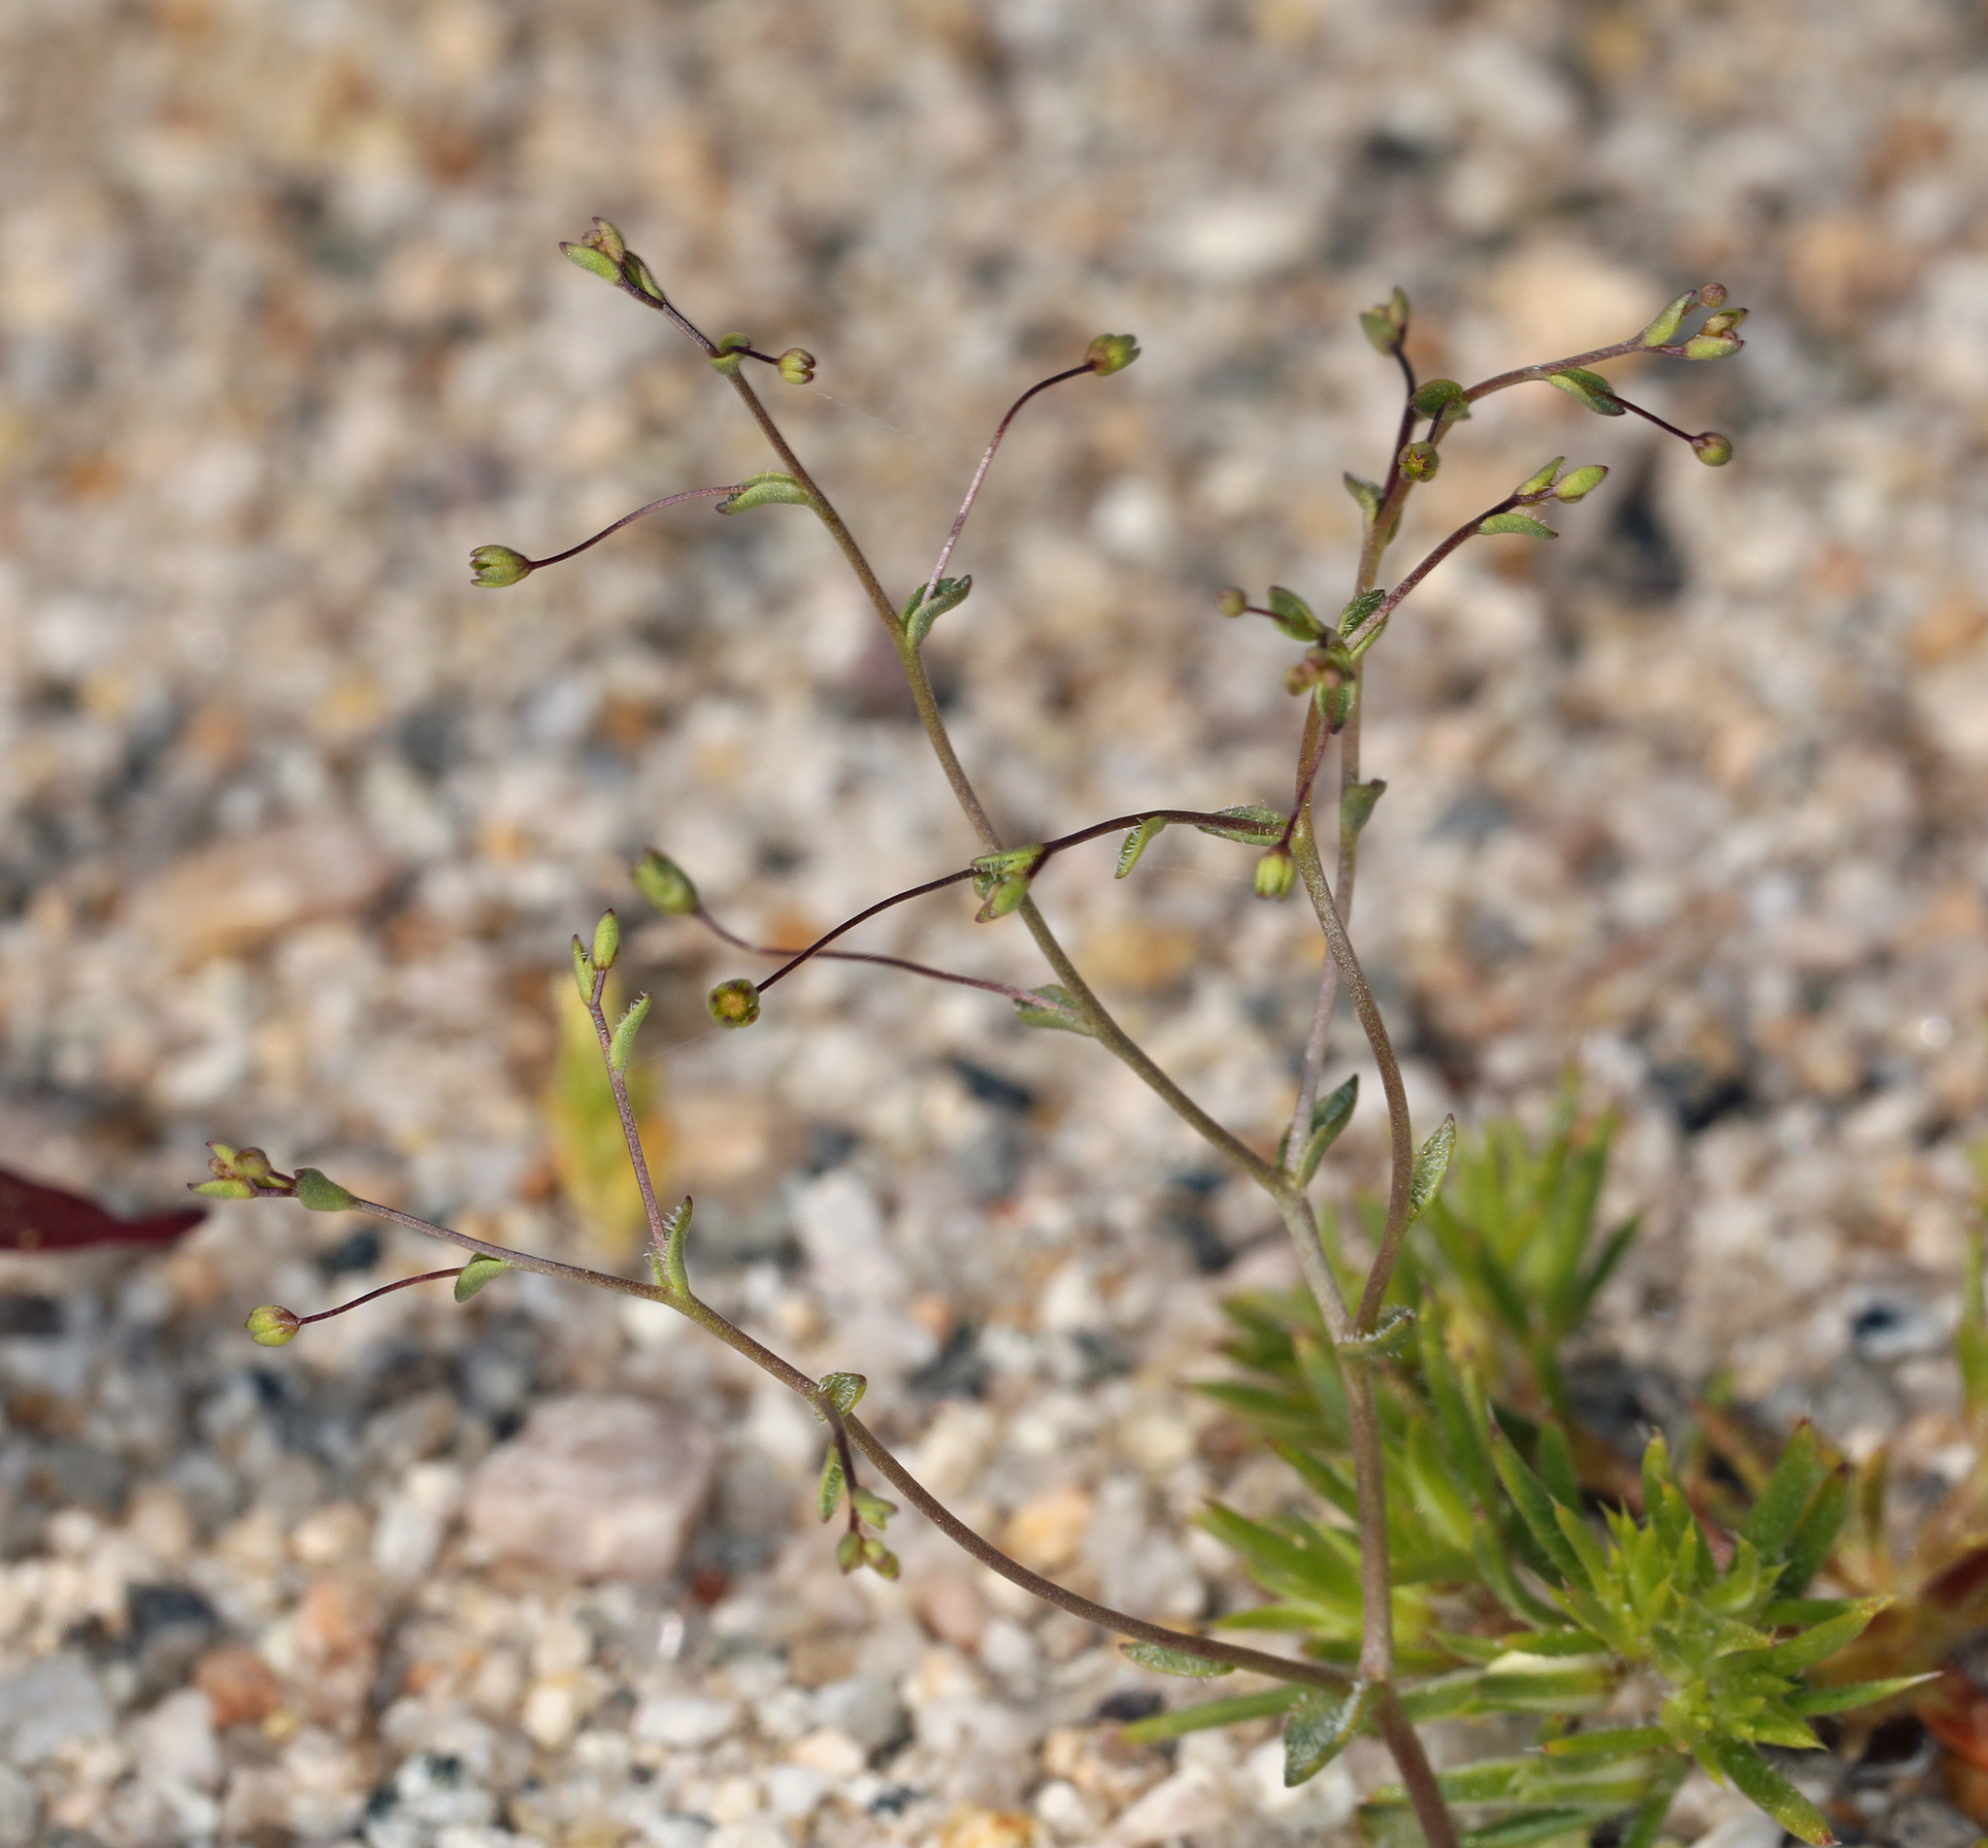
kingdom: Plantae
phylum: Tracheophyta
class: Magnoliopsida
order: Asterales
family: Campanulaceae
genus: Nemacladus
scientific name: Nemacladus
